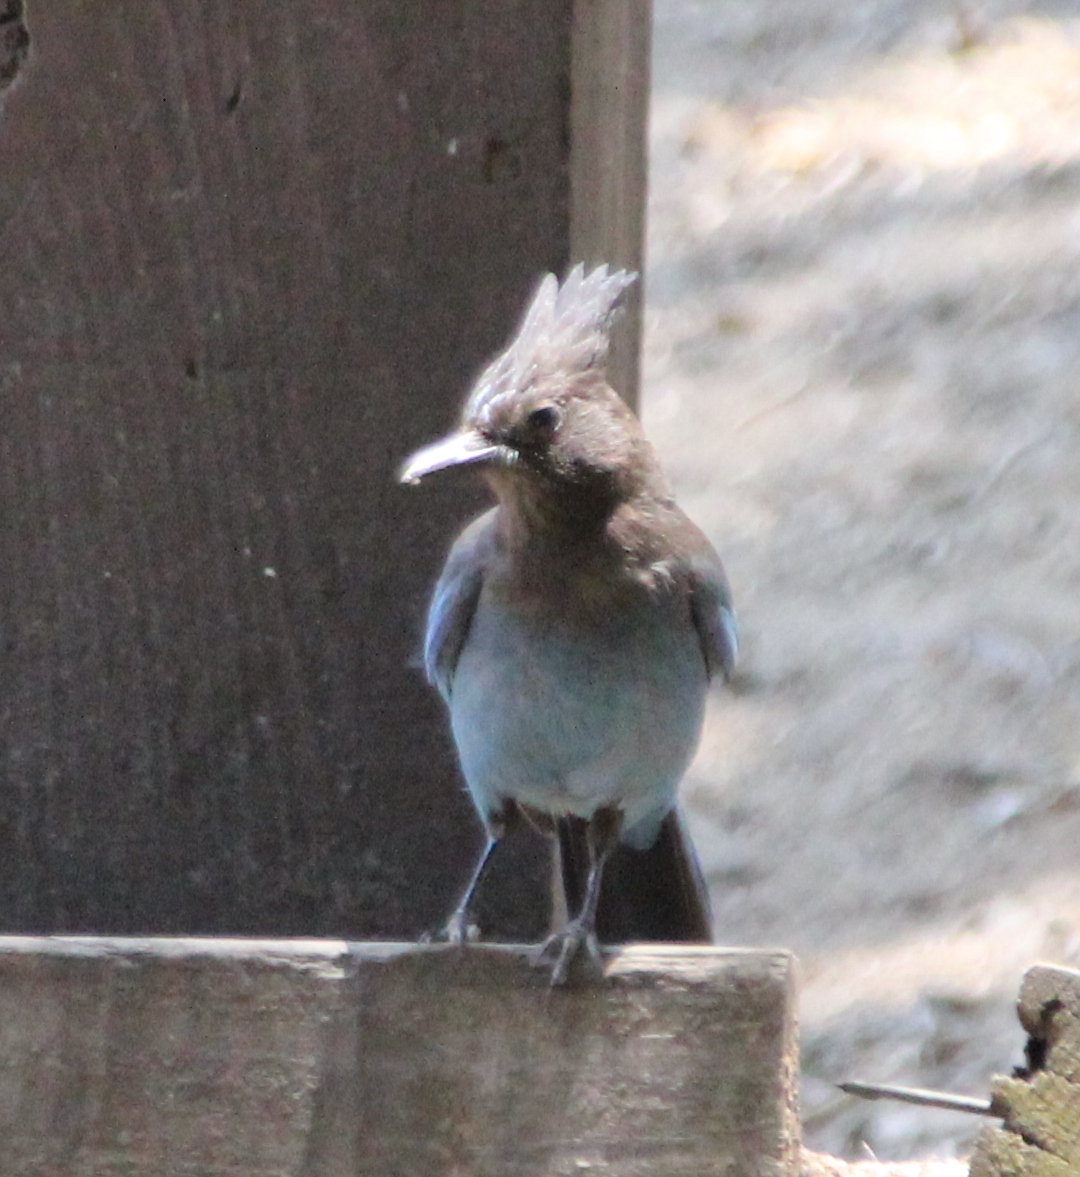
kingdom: Animalia
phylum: Chordata
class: Aves
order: Passeriformes
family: Corvidae
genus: Cyanocitta
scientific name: Cyanocitta stelleri
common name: Steller's jay
